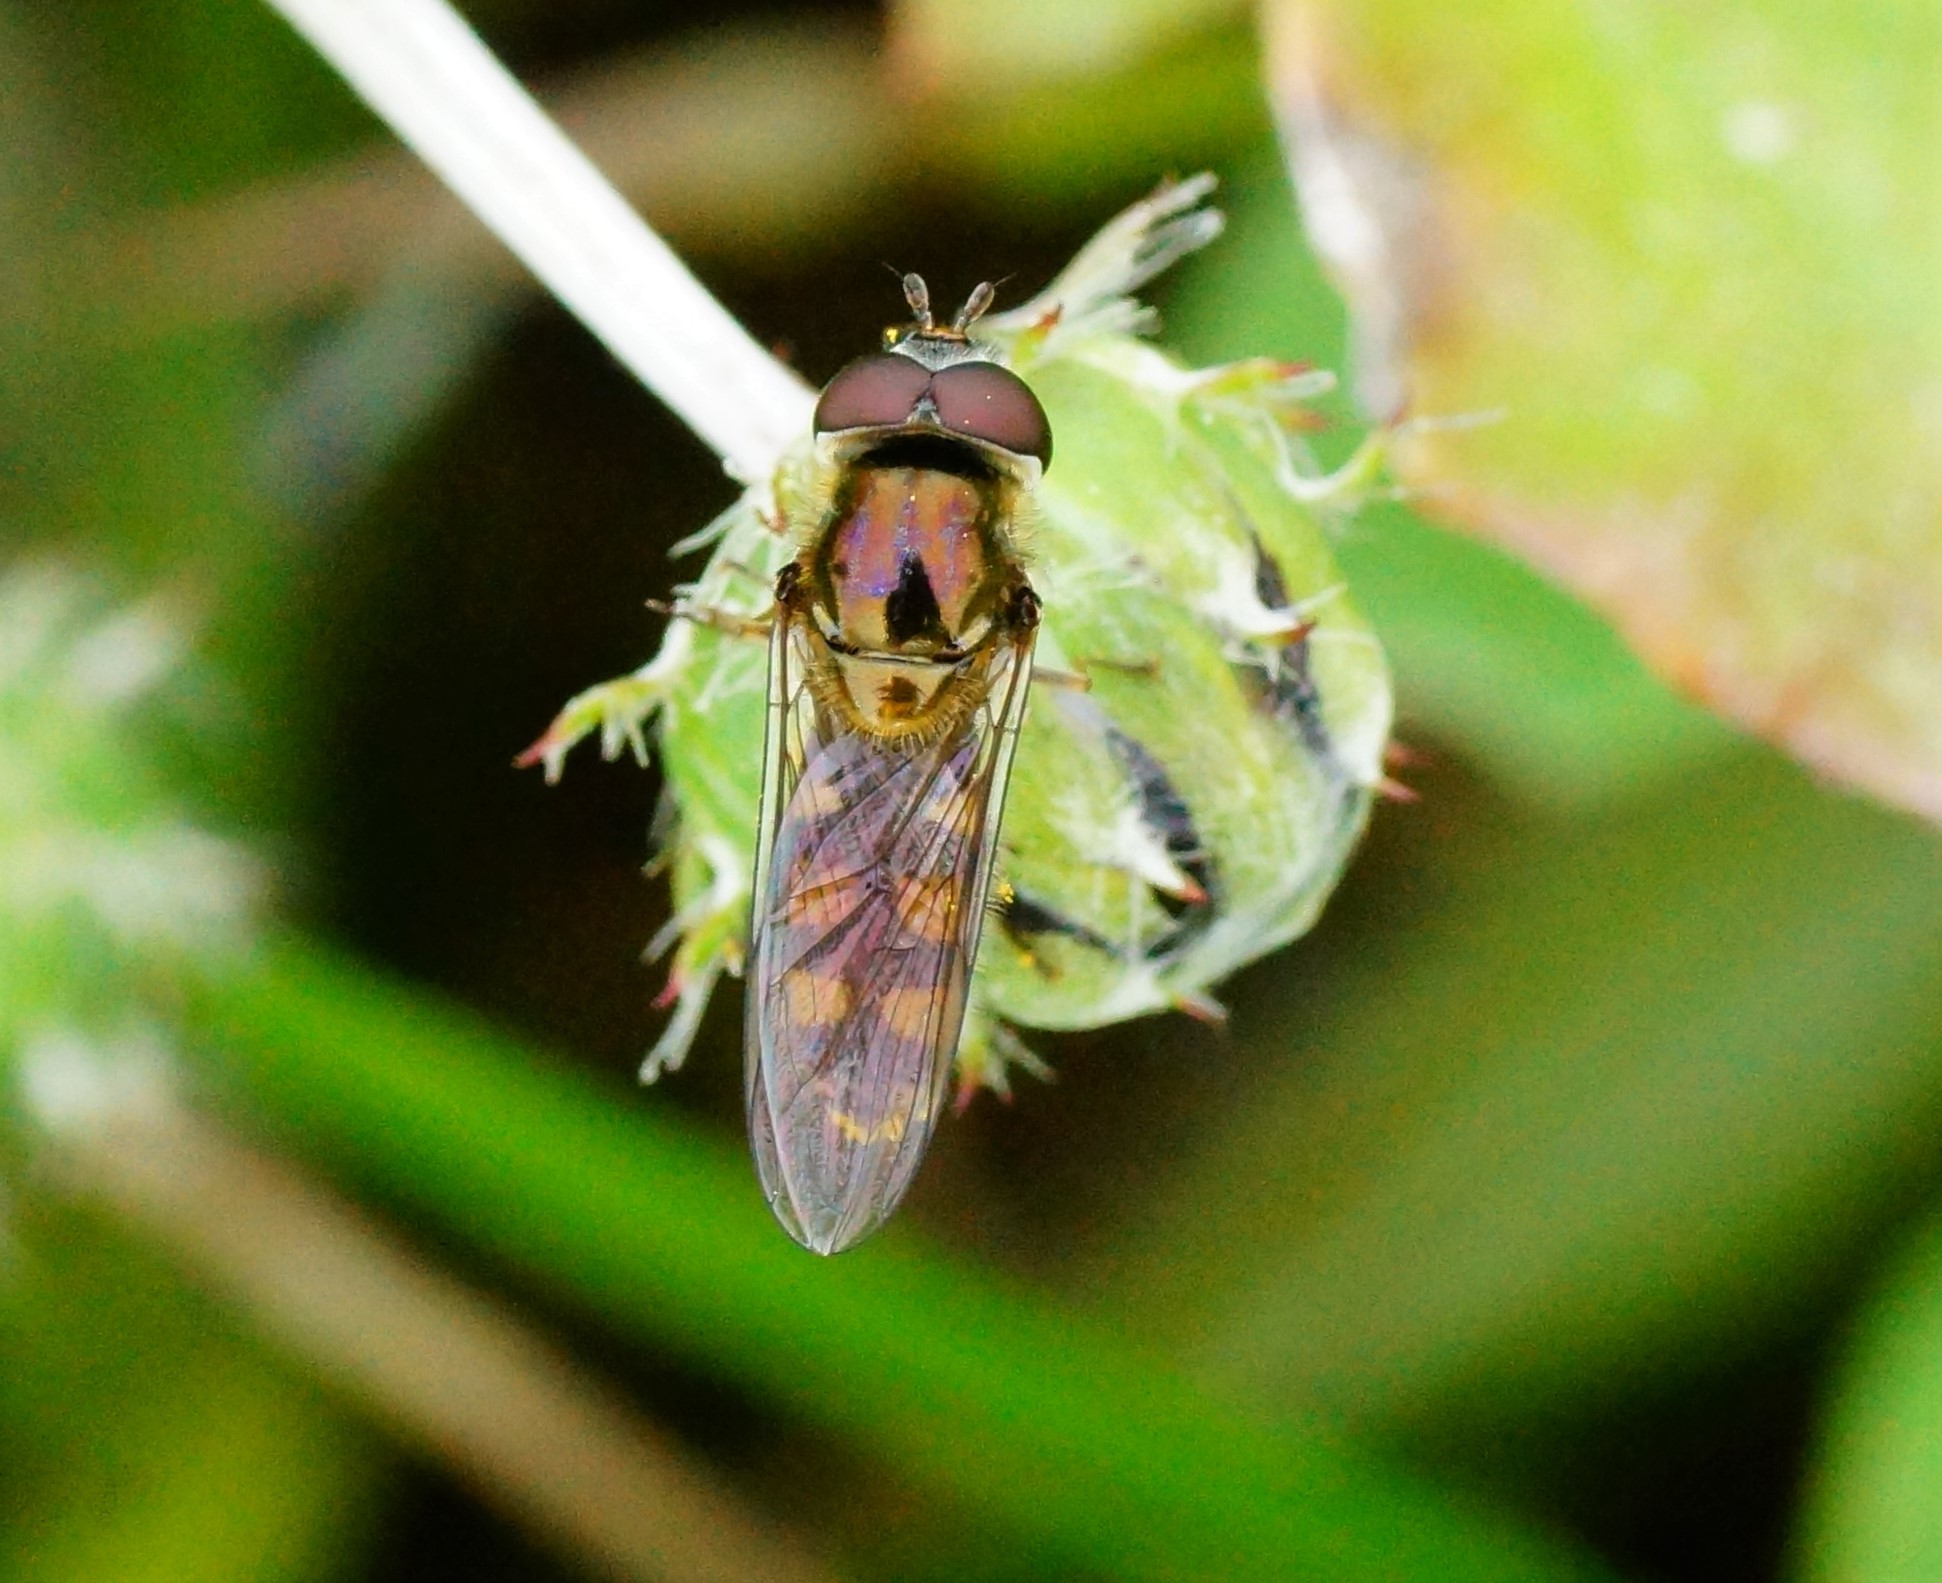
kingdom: Animalia
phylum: Arthropoda
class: Insecta
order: Diptera
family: Syrphidae
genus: Melangyna
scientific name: Melangyna viridiceps
